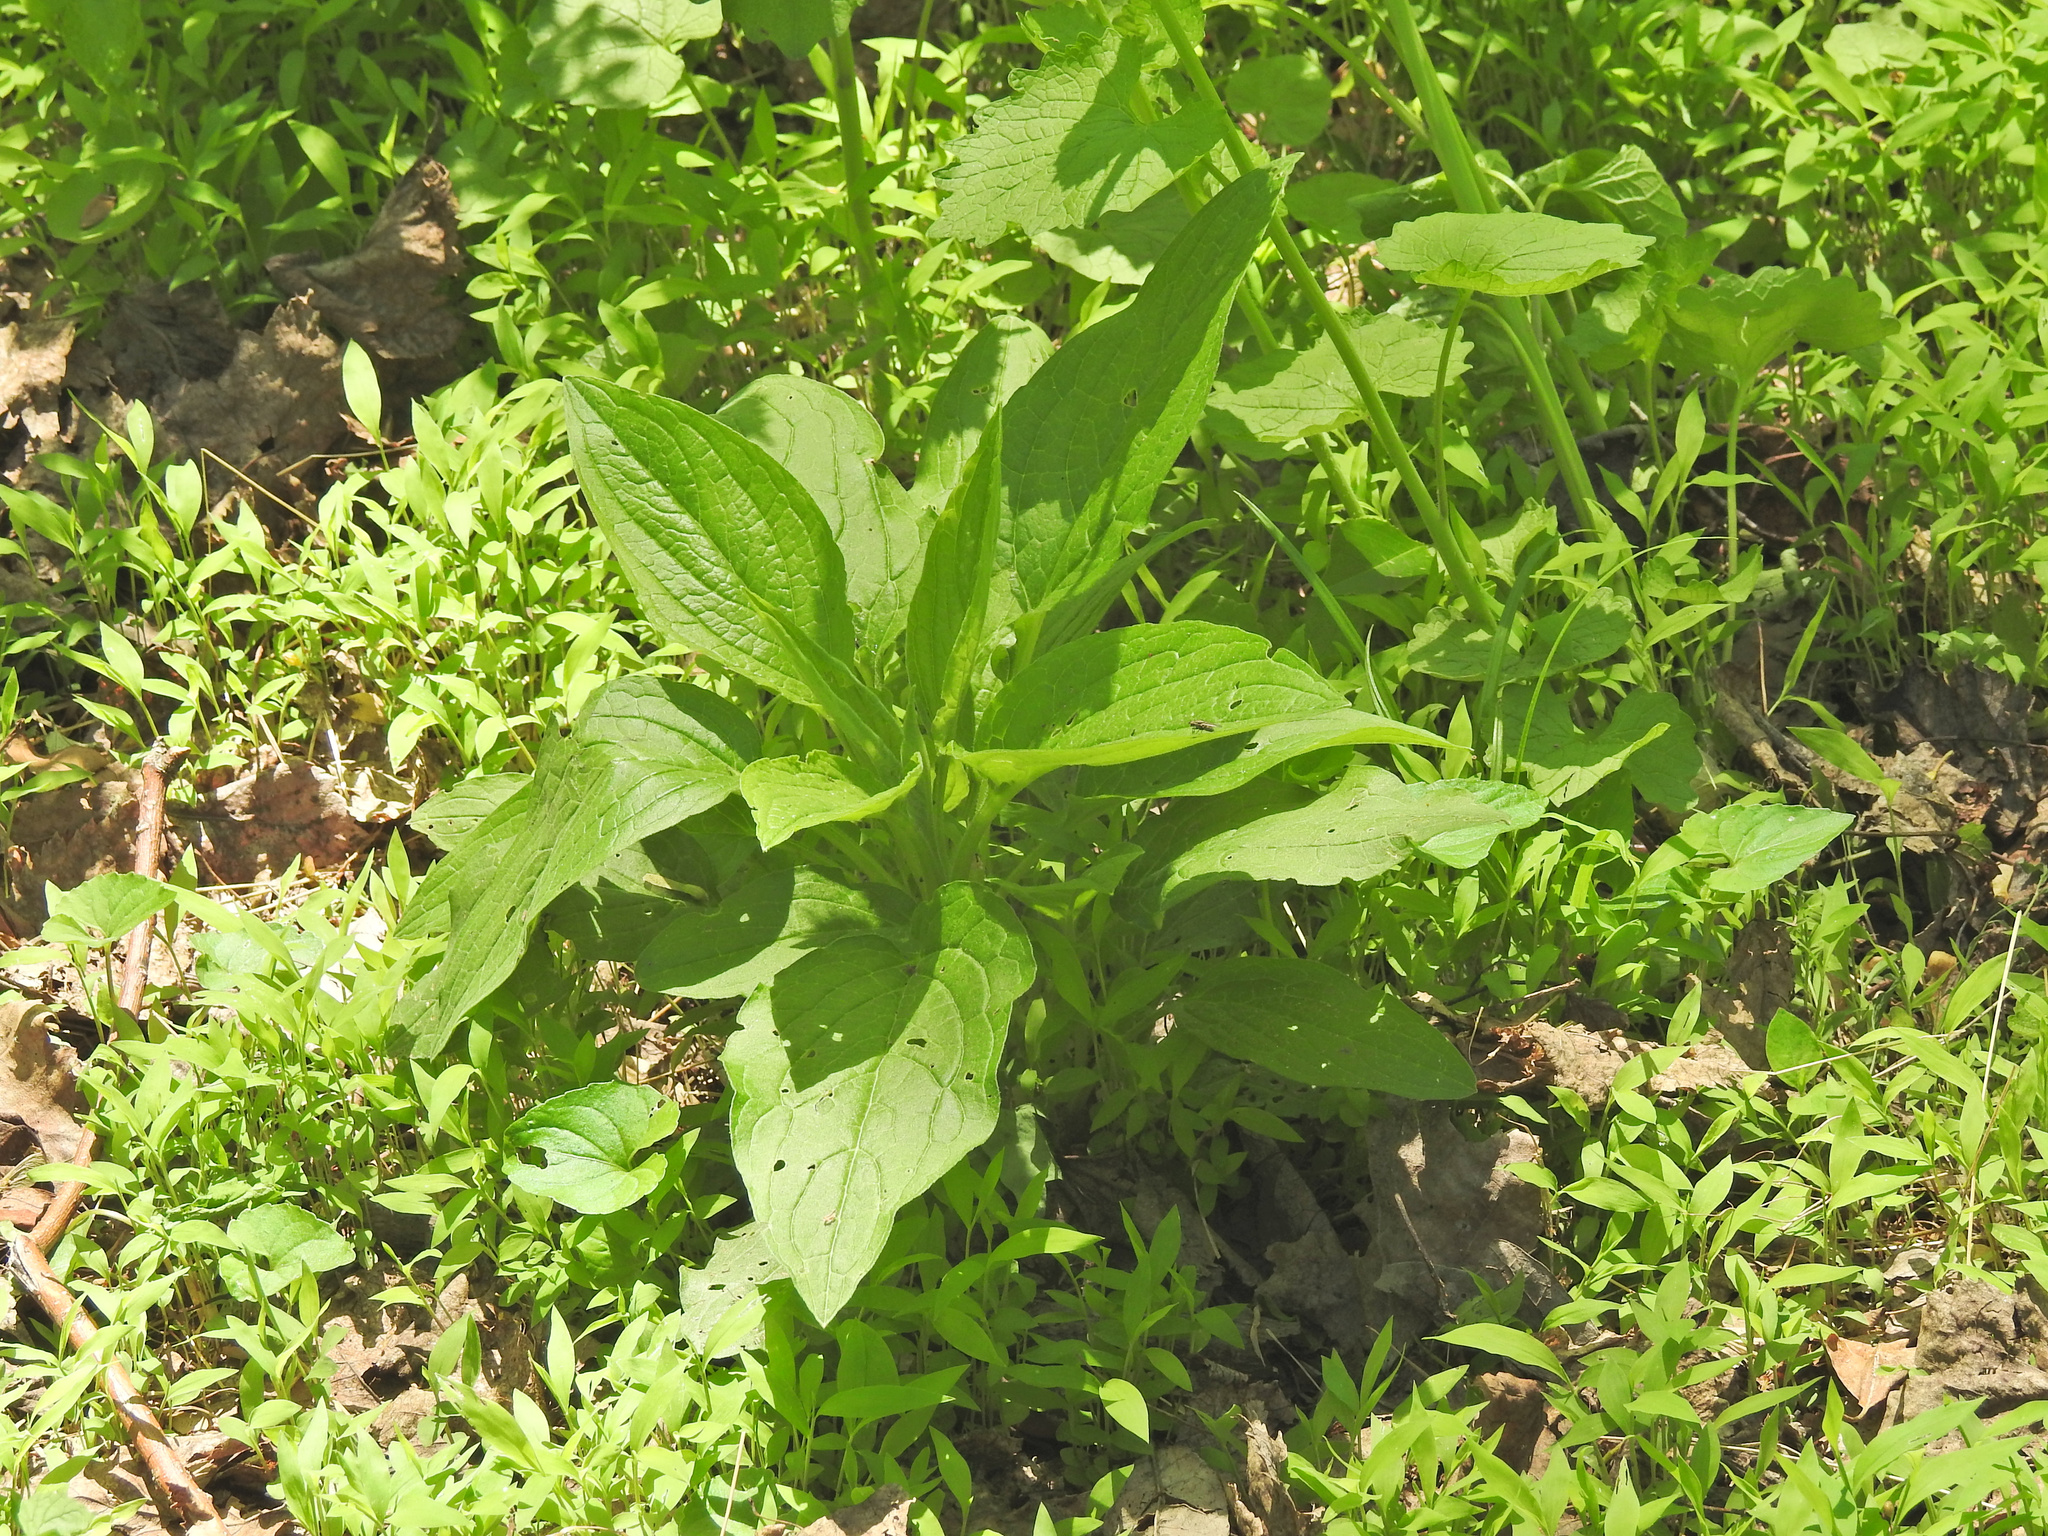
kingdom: Plantae
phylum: Tracheophyta
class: Magnoliopsida
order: Boraginales
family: Boraginaceae
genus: Hackelia
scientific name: Hackelia virginiana
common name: Beggar's-lice
